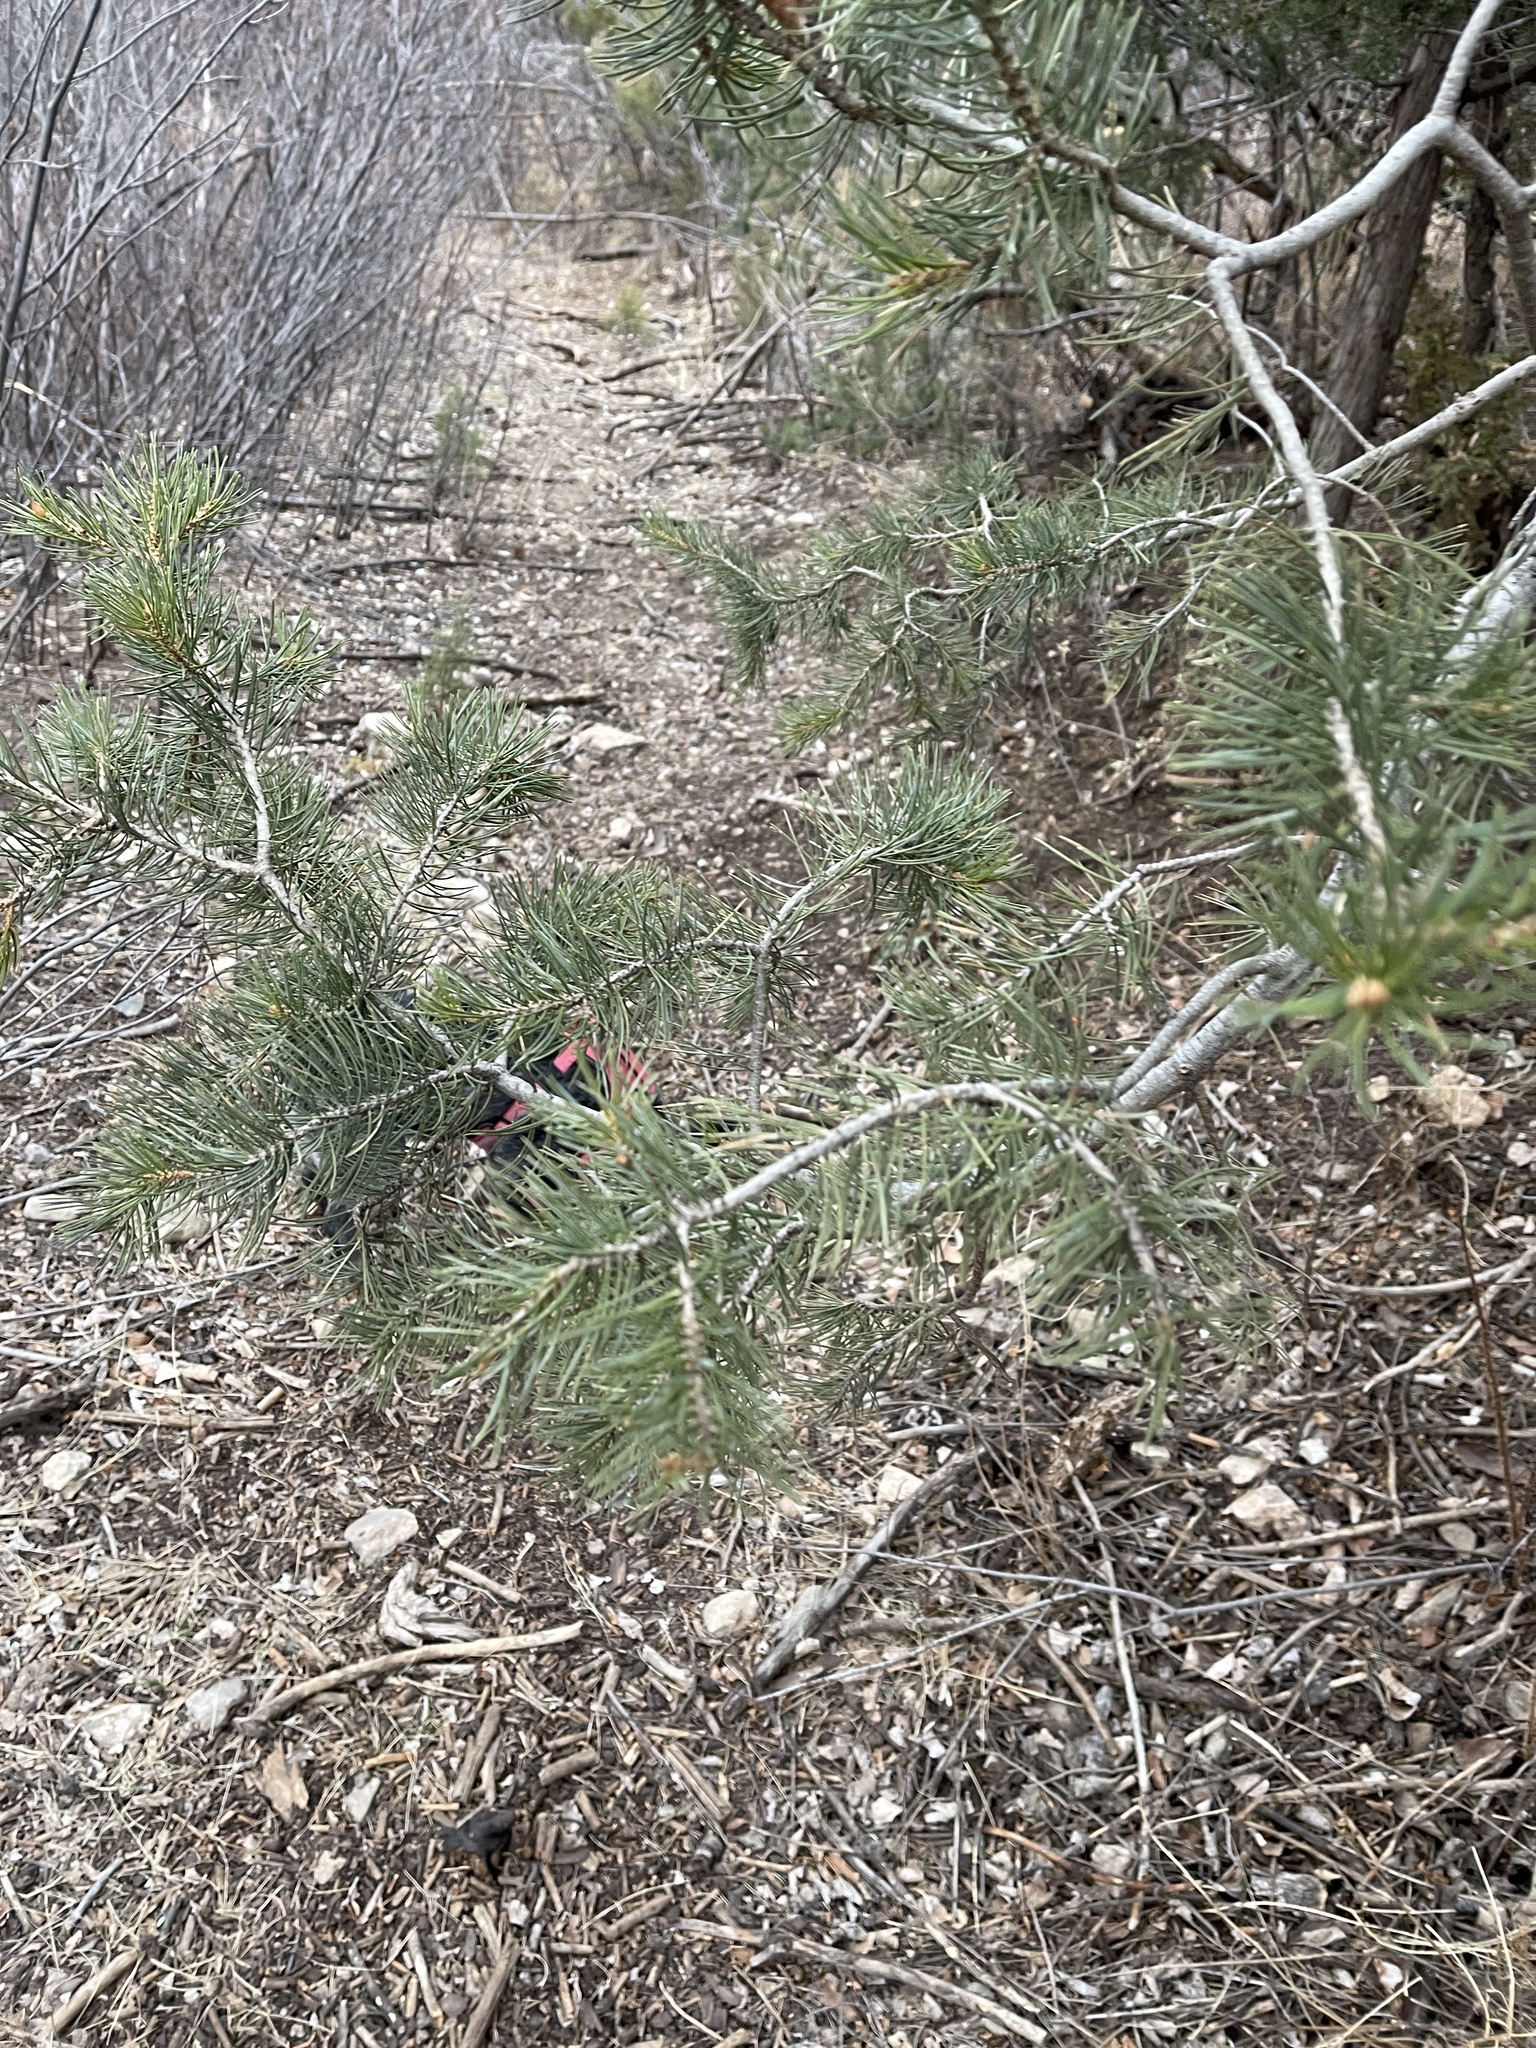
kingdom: Plantae
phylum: Tracheophyta
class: Pinopsida
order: Pinales
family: Pinaceae
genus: Pinus
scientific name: Pinus edulis
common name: Colorado pinyon
